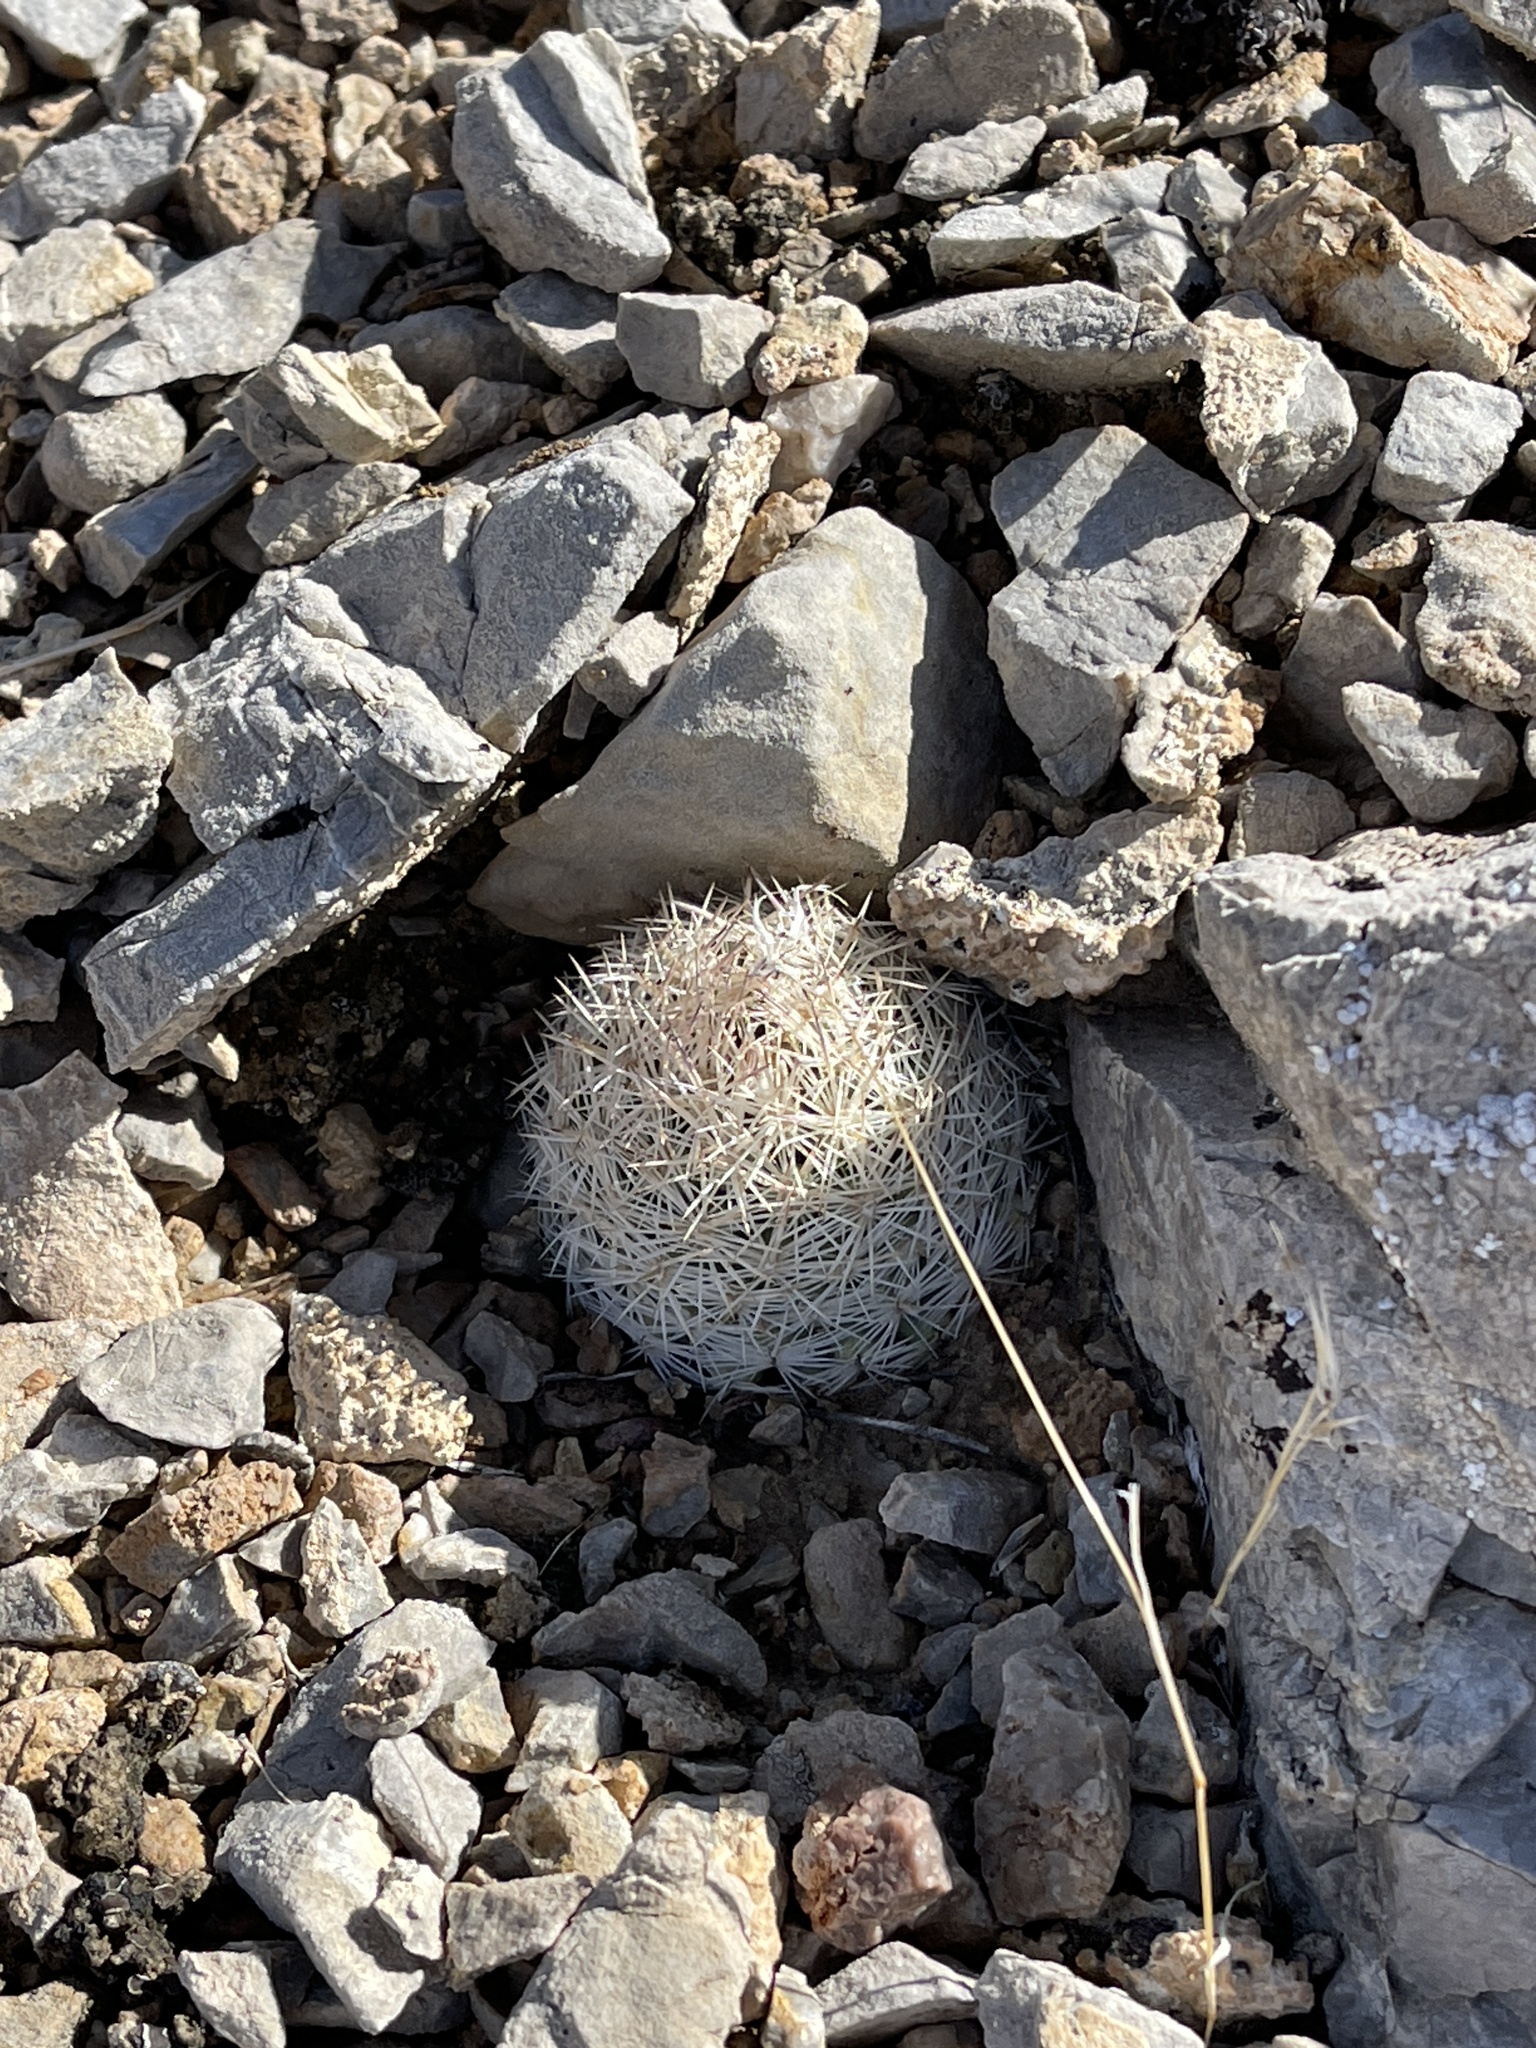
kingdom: Plantae
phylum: Tracheophyta
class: Magnoliopsida
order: Caryophyllales
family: Cactaceae
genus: Pelecyphora
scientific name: Pelecyphora dasyacantha
